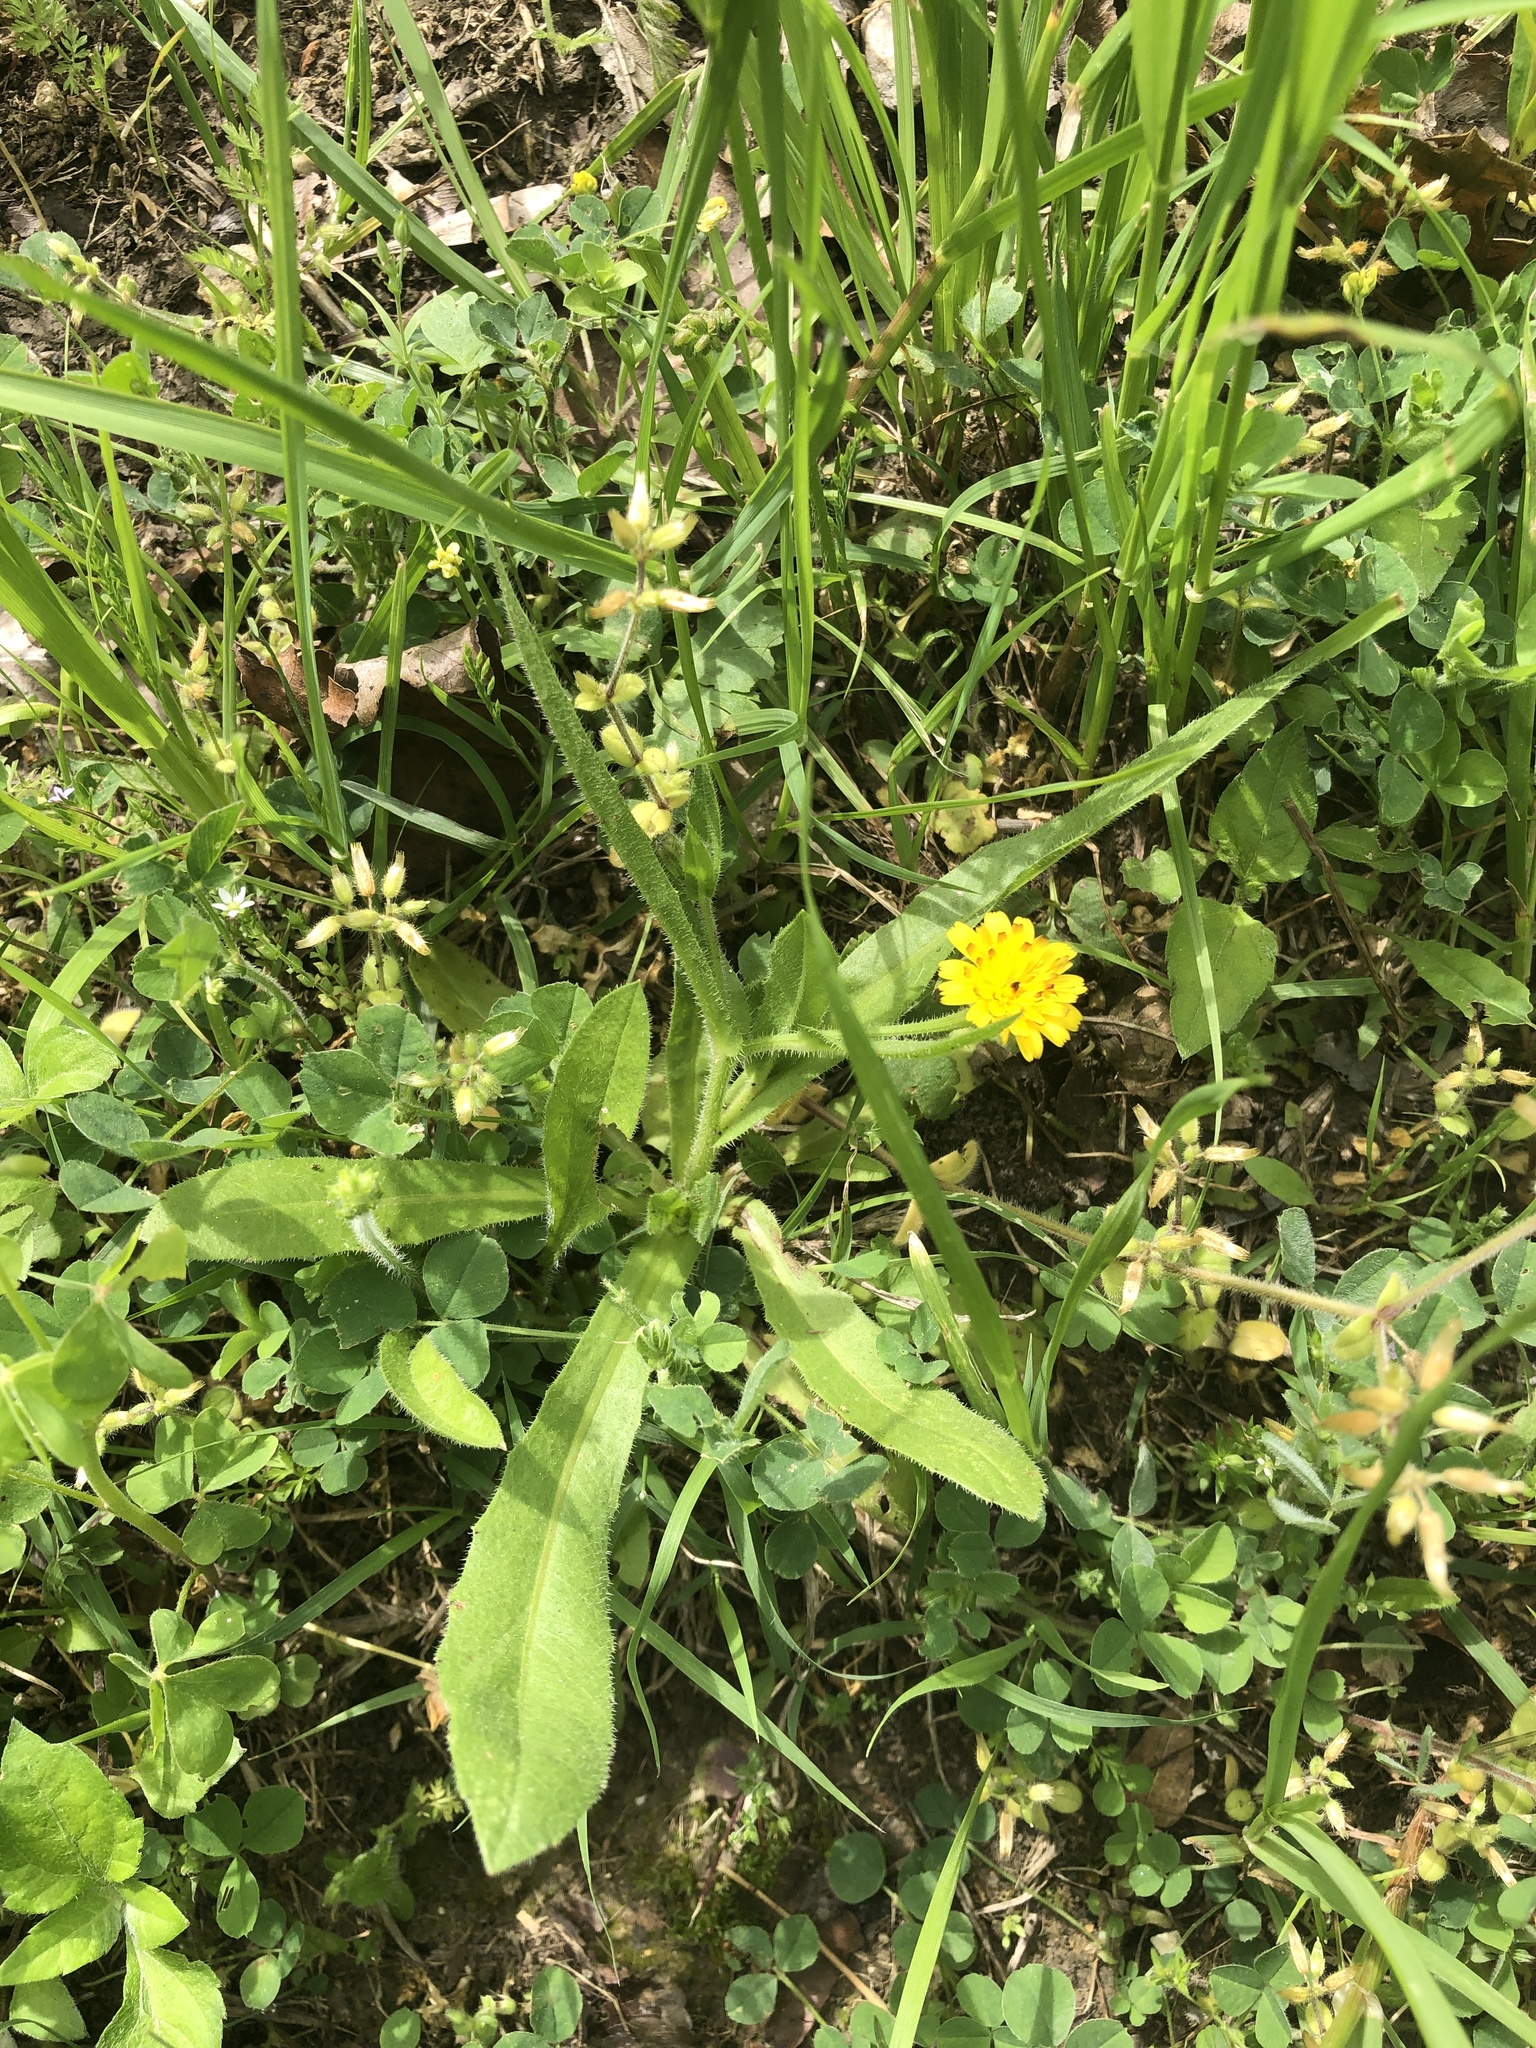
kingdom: Plantae
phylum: Tracheophyta
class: Magnoliopsida
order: Asterales
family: Asteraceae
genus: Hedypnois
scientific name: Hedypnois rhagadioloides
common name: Cretan weed
